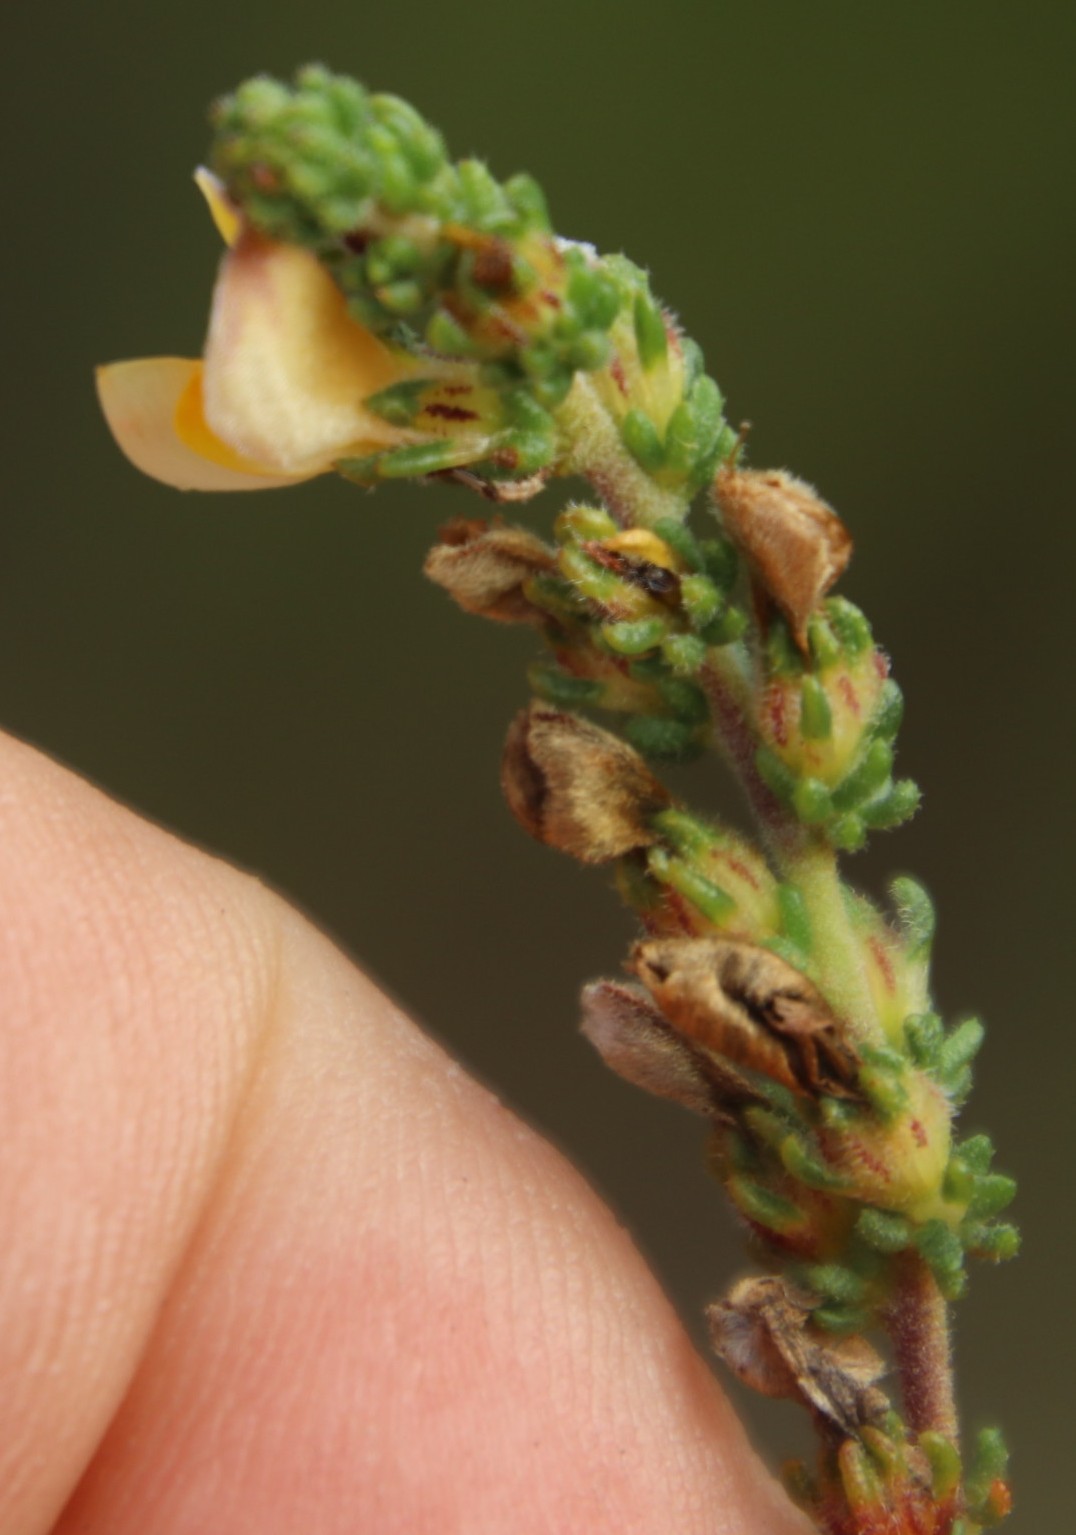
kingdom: Plantae
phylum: Tracheophyta
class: Magnoliopsida
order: Fabales
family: Fabaceae
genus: Aspalathus
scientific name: Aspalathus juniperina
